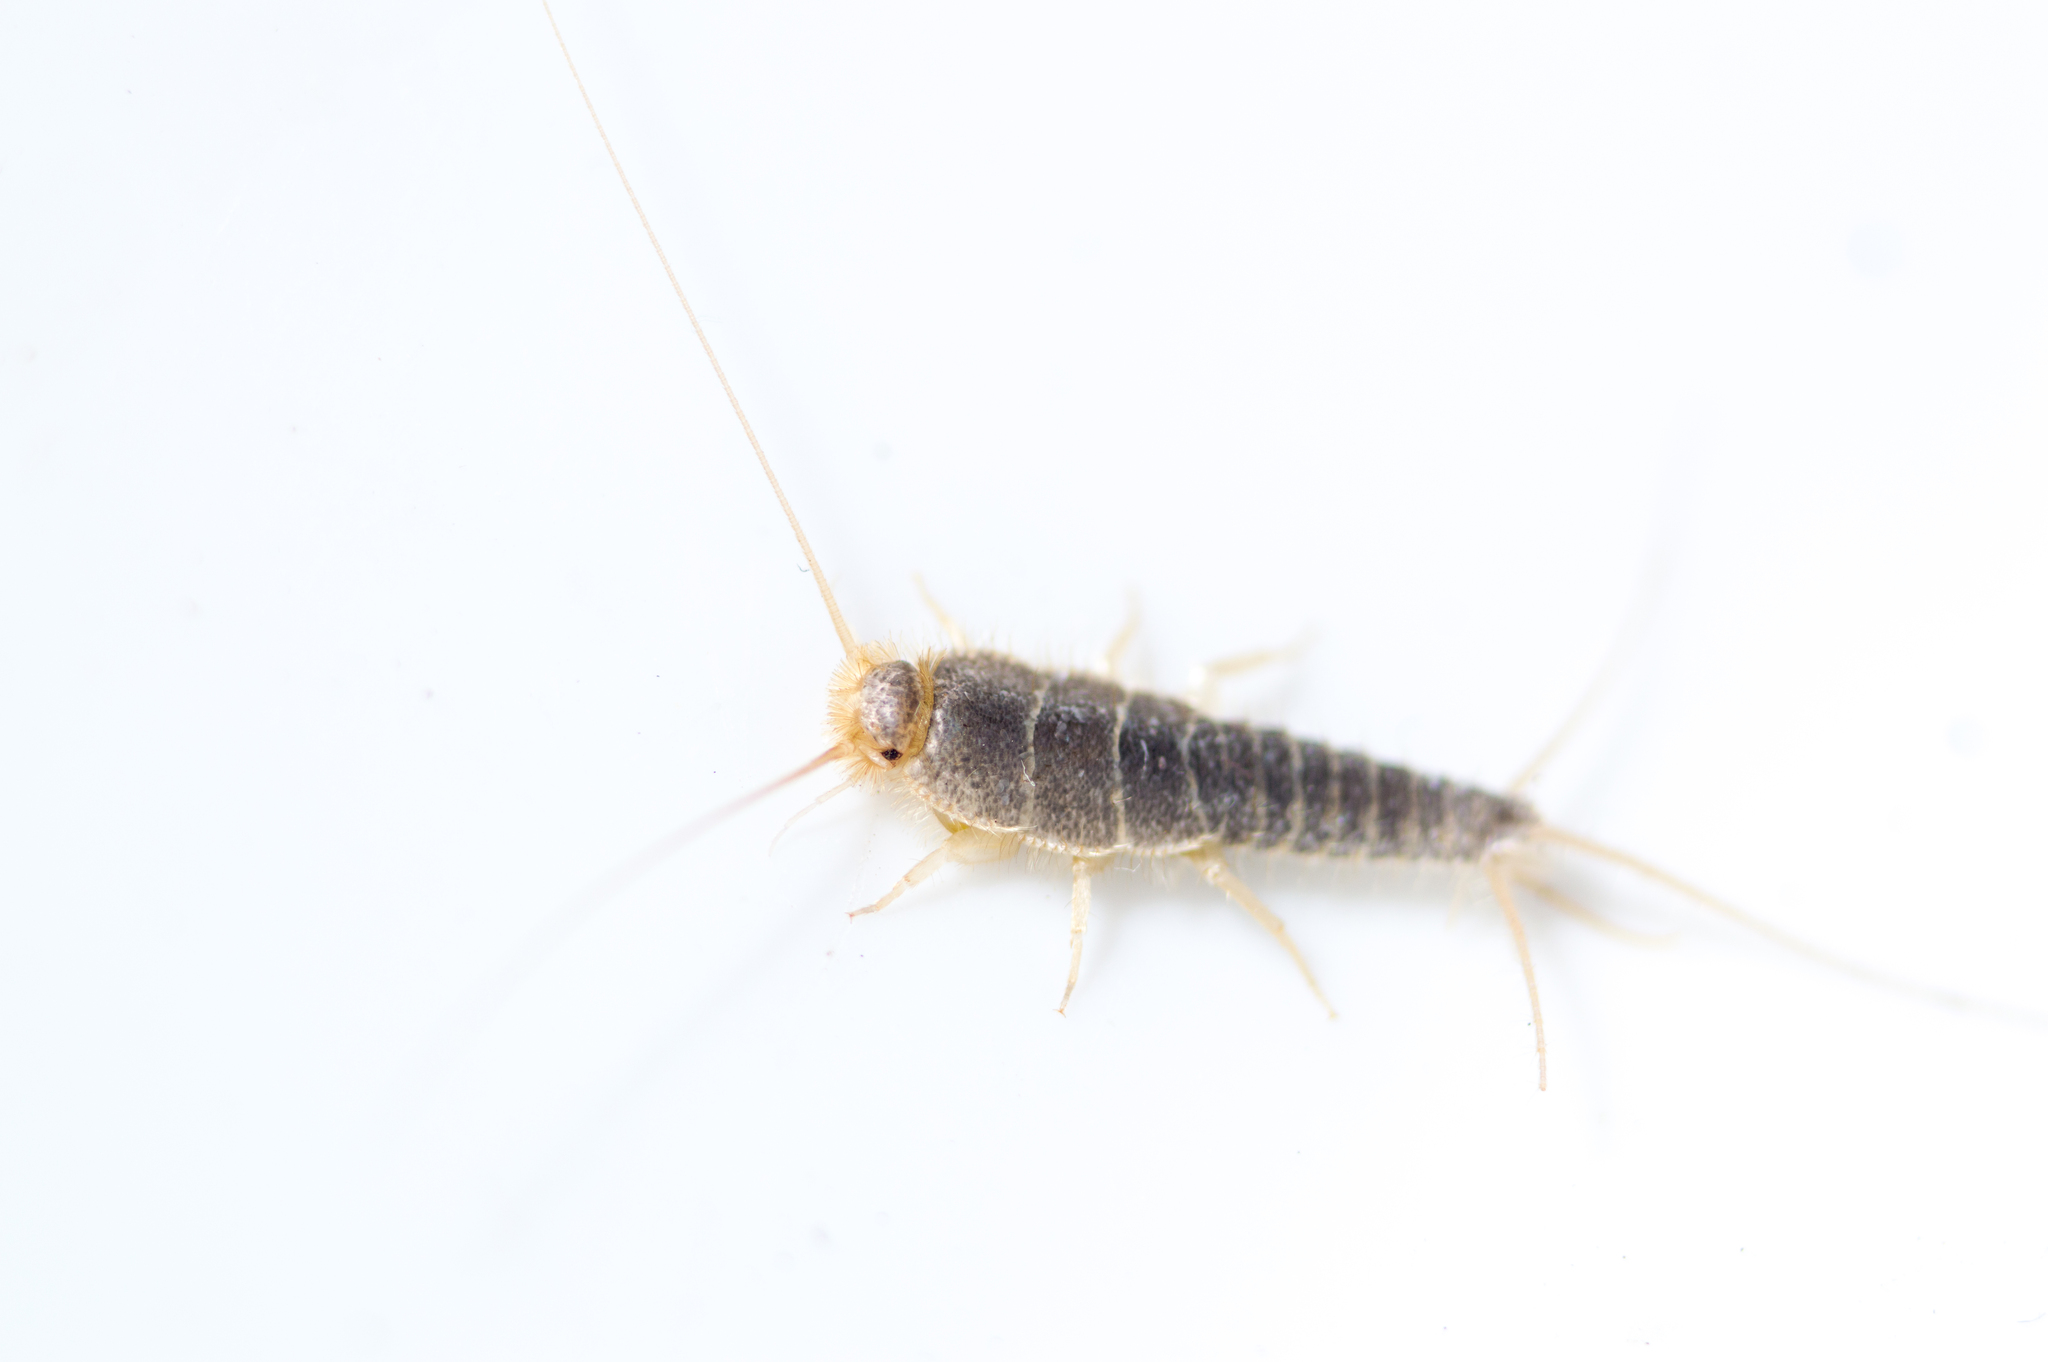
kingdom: Animalia
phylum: Arthropoda
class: Insecta
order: Zygentoma
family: Lepismatidae
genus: Ctenolepisma
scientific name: Ctenolepisma longicaudatum
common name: Silverfish
